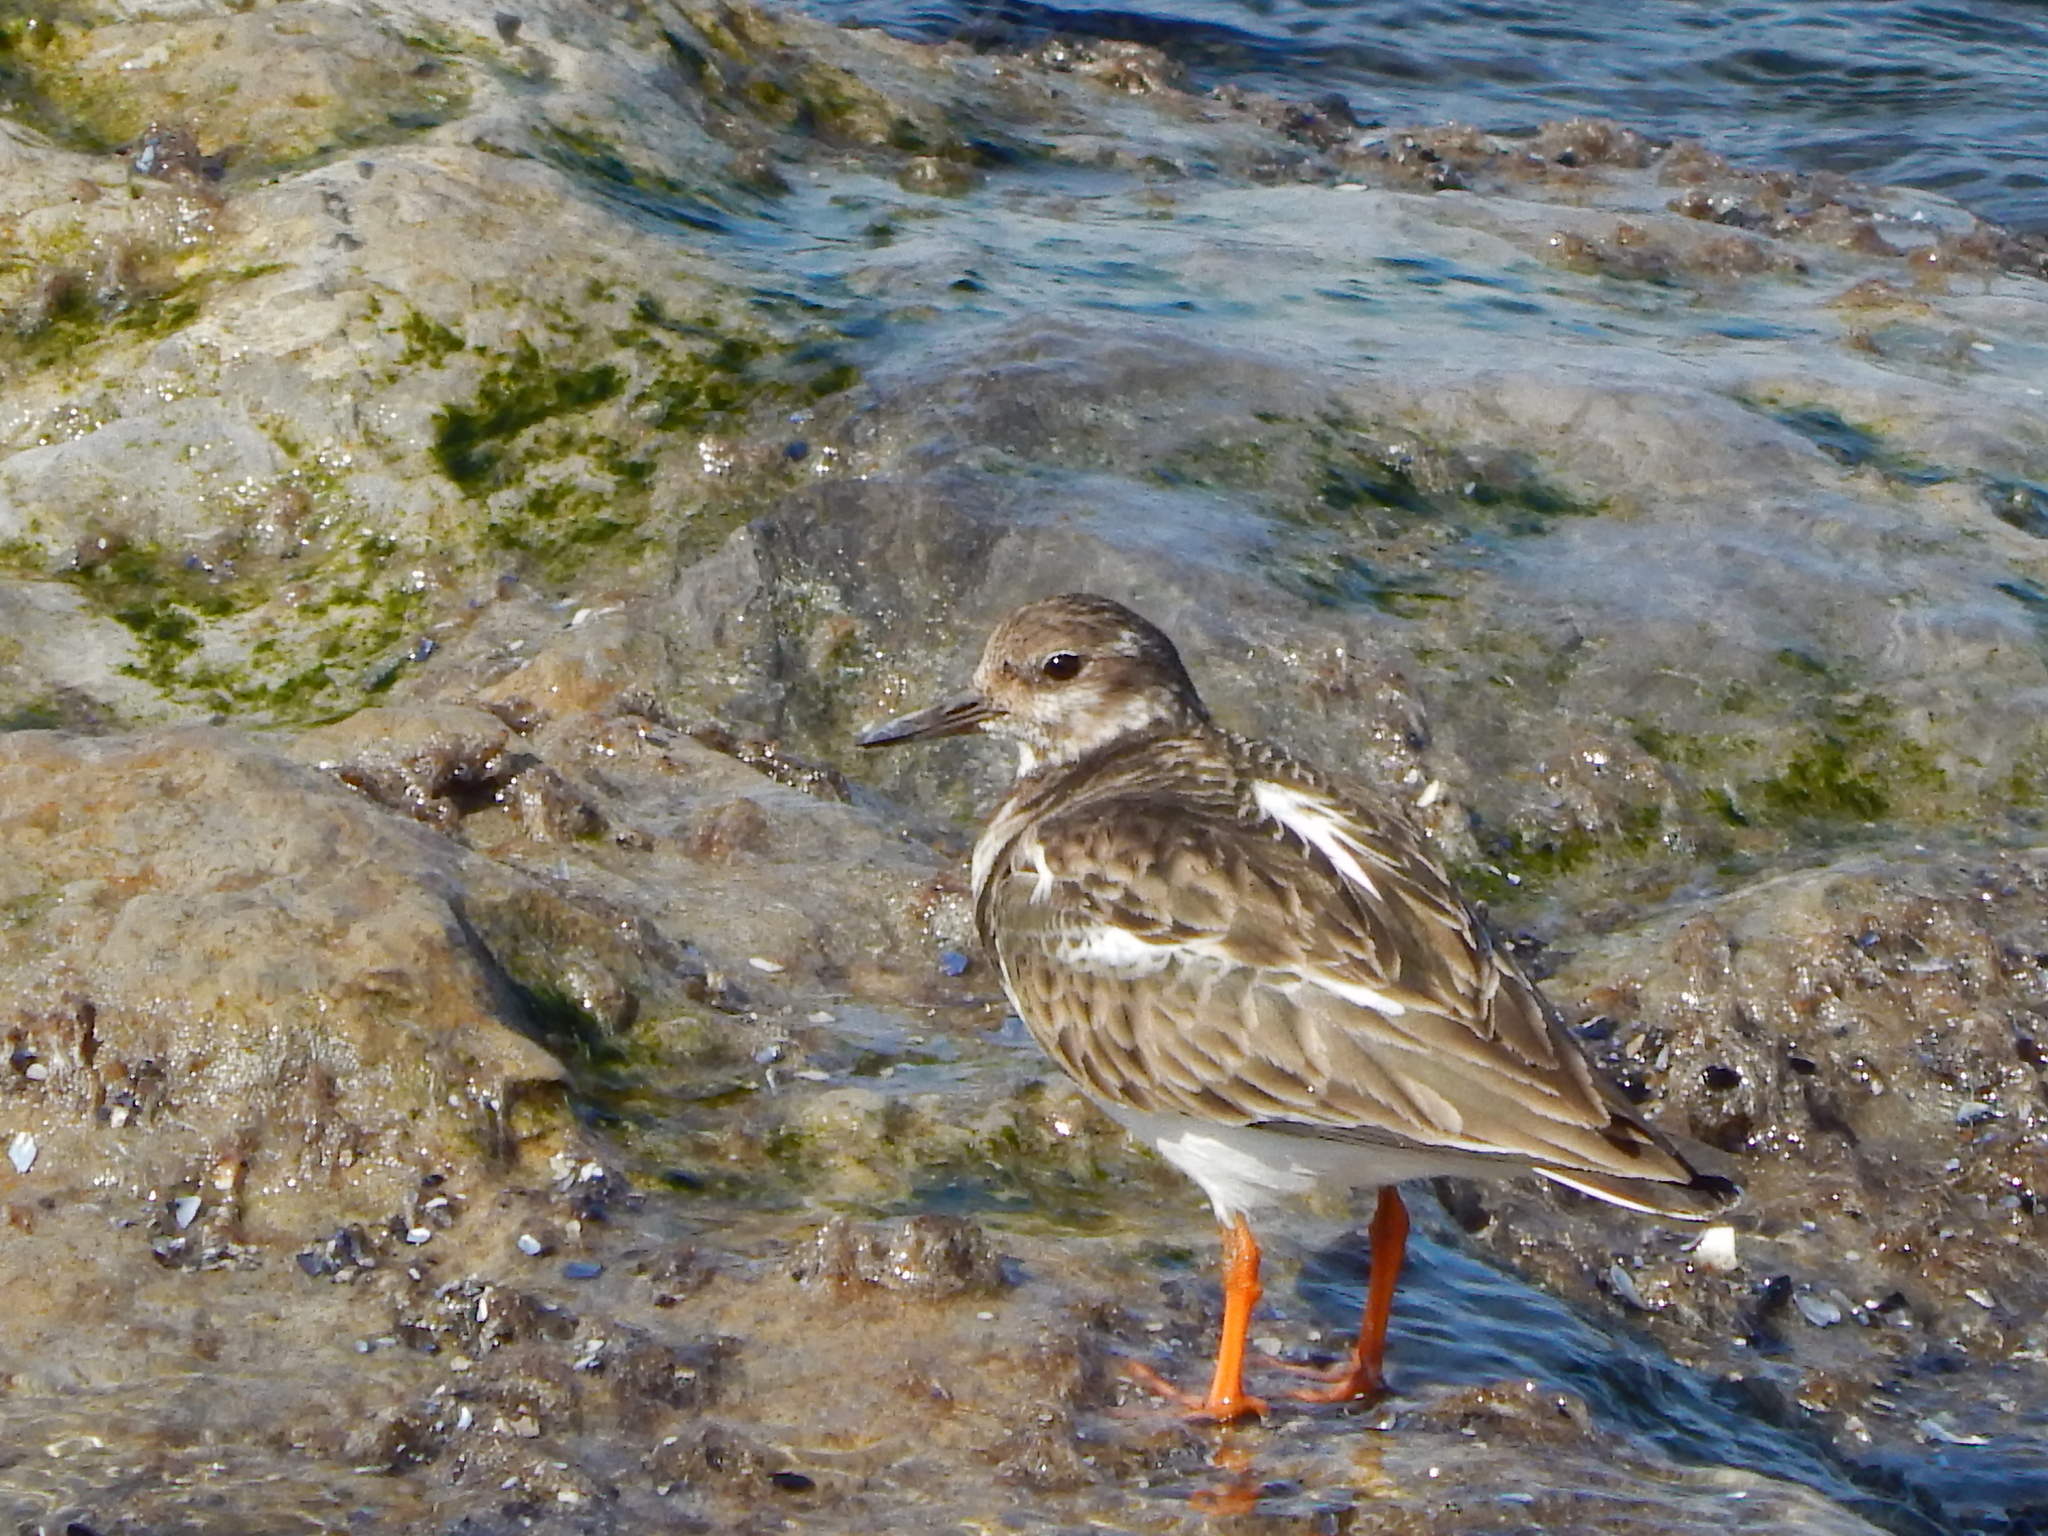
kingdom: Animalia
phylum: Chordata
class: Aves
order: Charadriiformes
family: Scolopacidae
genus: Arenaria
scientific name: Arenaria interpres
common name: Ruddy turnstone
